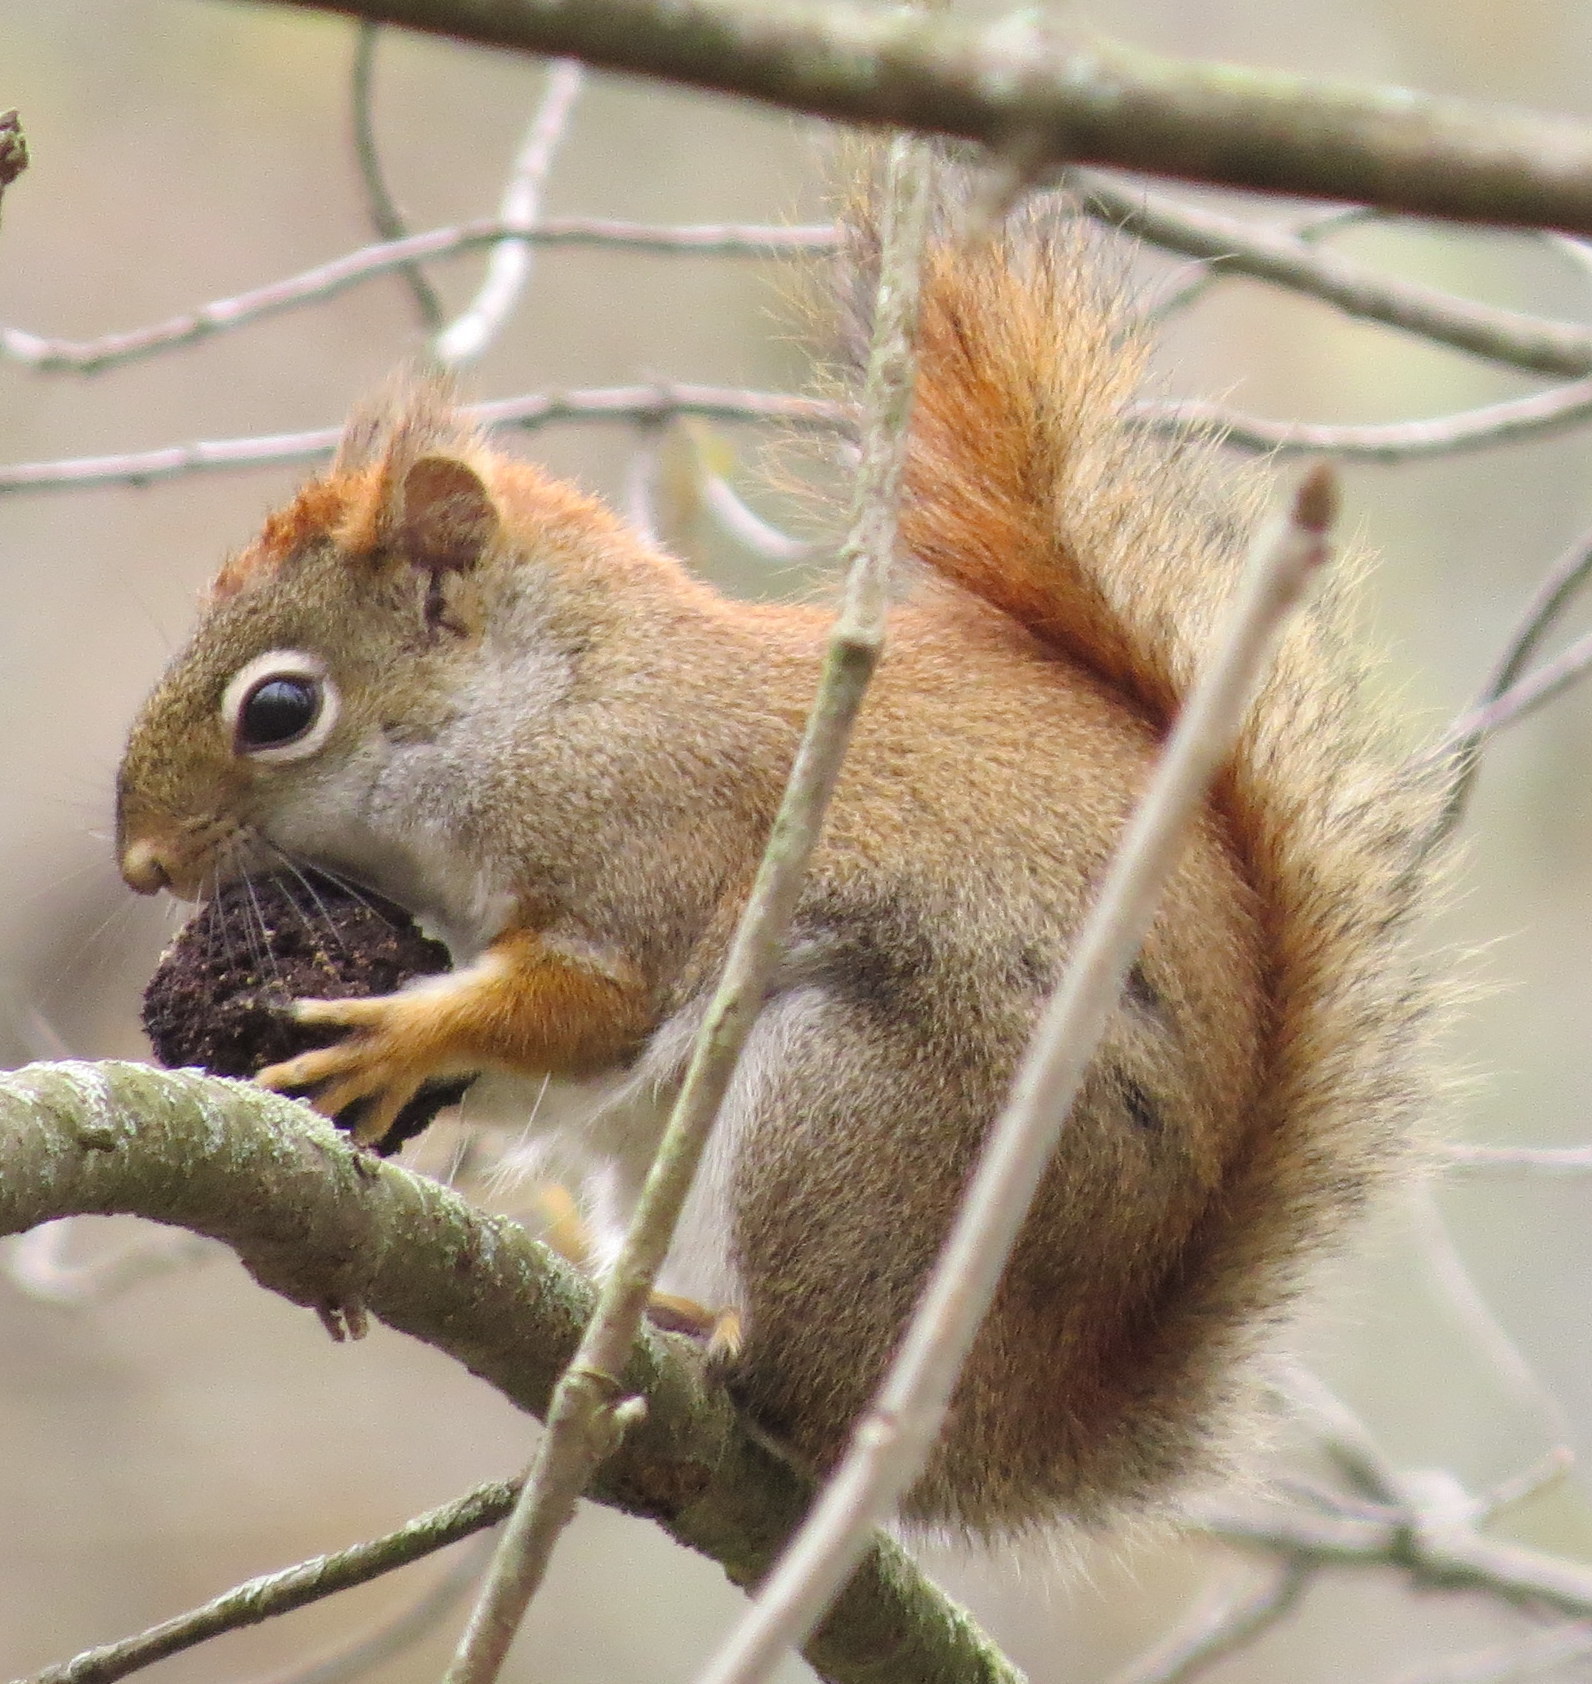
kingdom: Animalia
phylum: Chordata
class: Mammalia
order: Rodentia
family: Sciuridae
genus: Tamiasciurus
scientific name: Tamiasciurus hudsonicus
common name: Red squirrel
